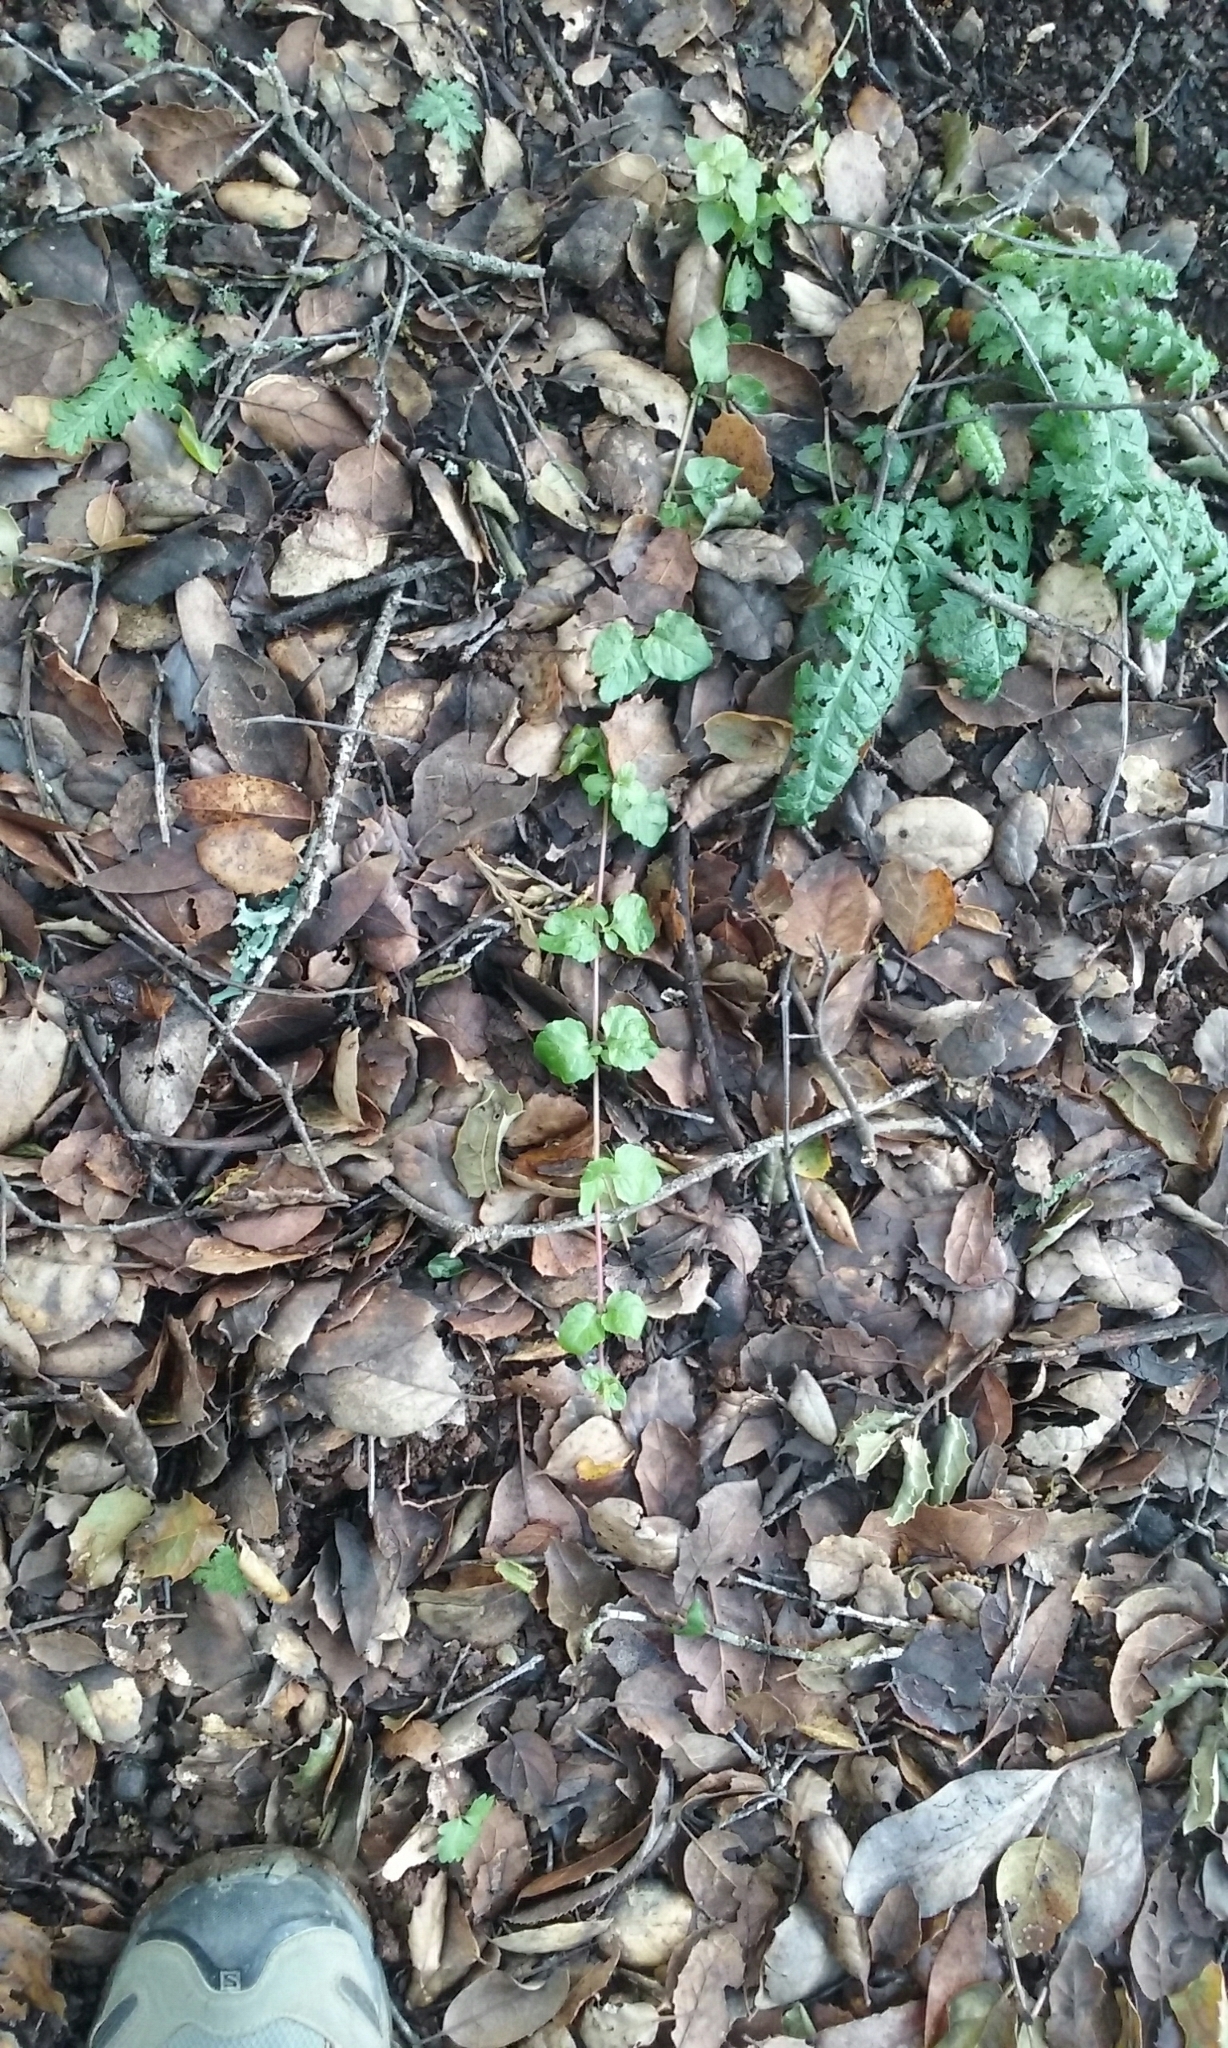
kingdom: Plantae
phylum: Tracheophyta
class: Magnoliopsida
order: Lamiales
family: Lamiaceae
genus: Micromeria
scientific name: Micromeria douglasii
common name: Yerba buena
